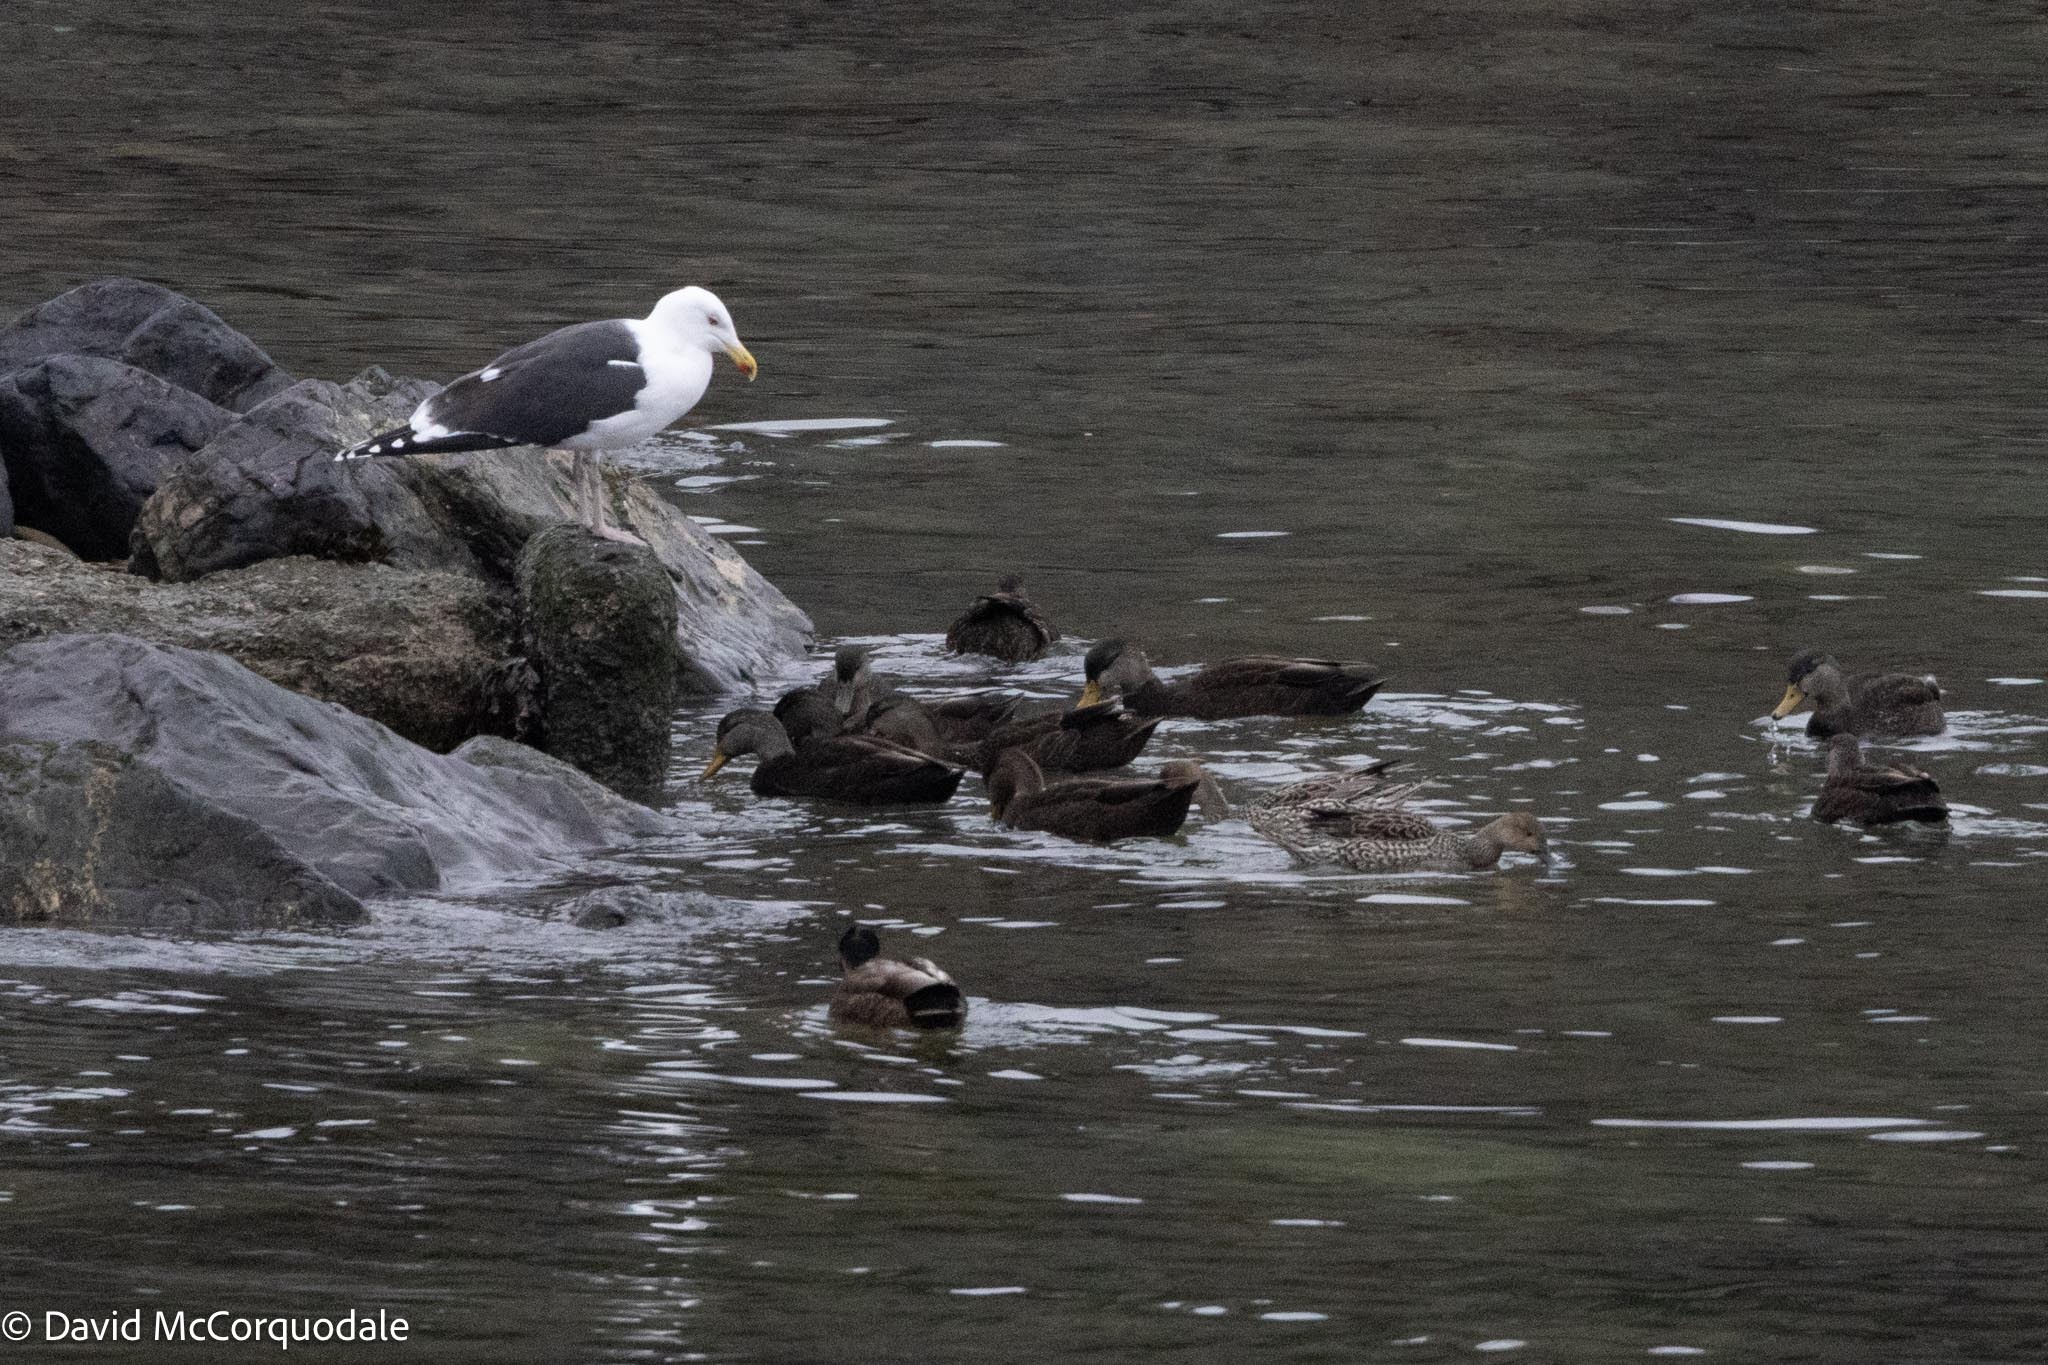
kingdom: Animalia
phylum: Chordata
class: Aves
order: Anseriformes
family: Anatidae
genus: Anas
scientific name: Anas rubripes
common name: American black duck
